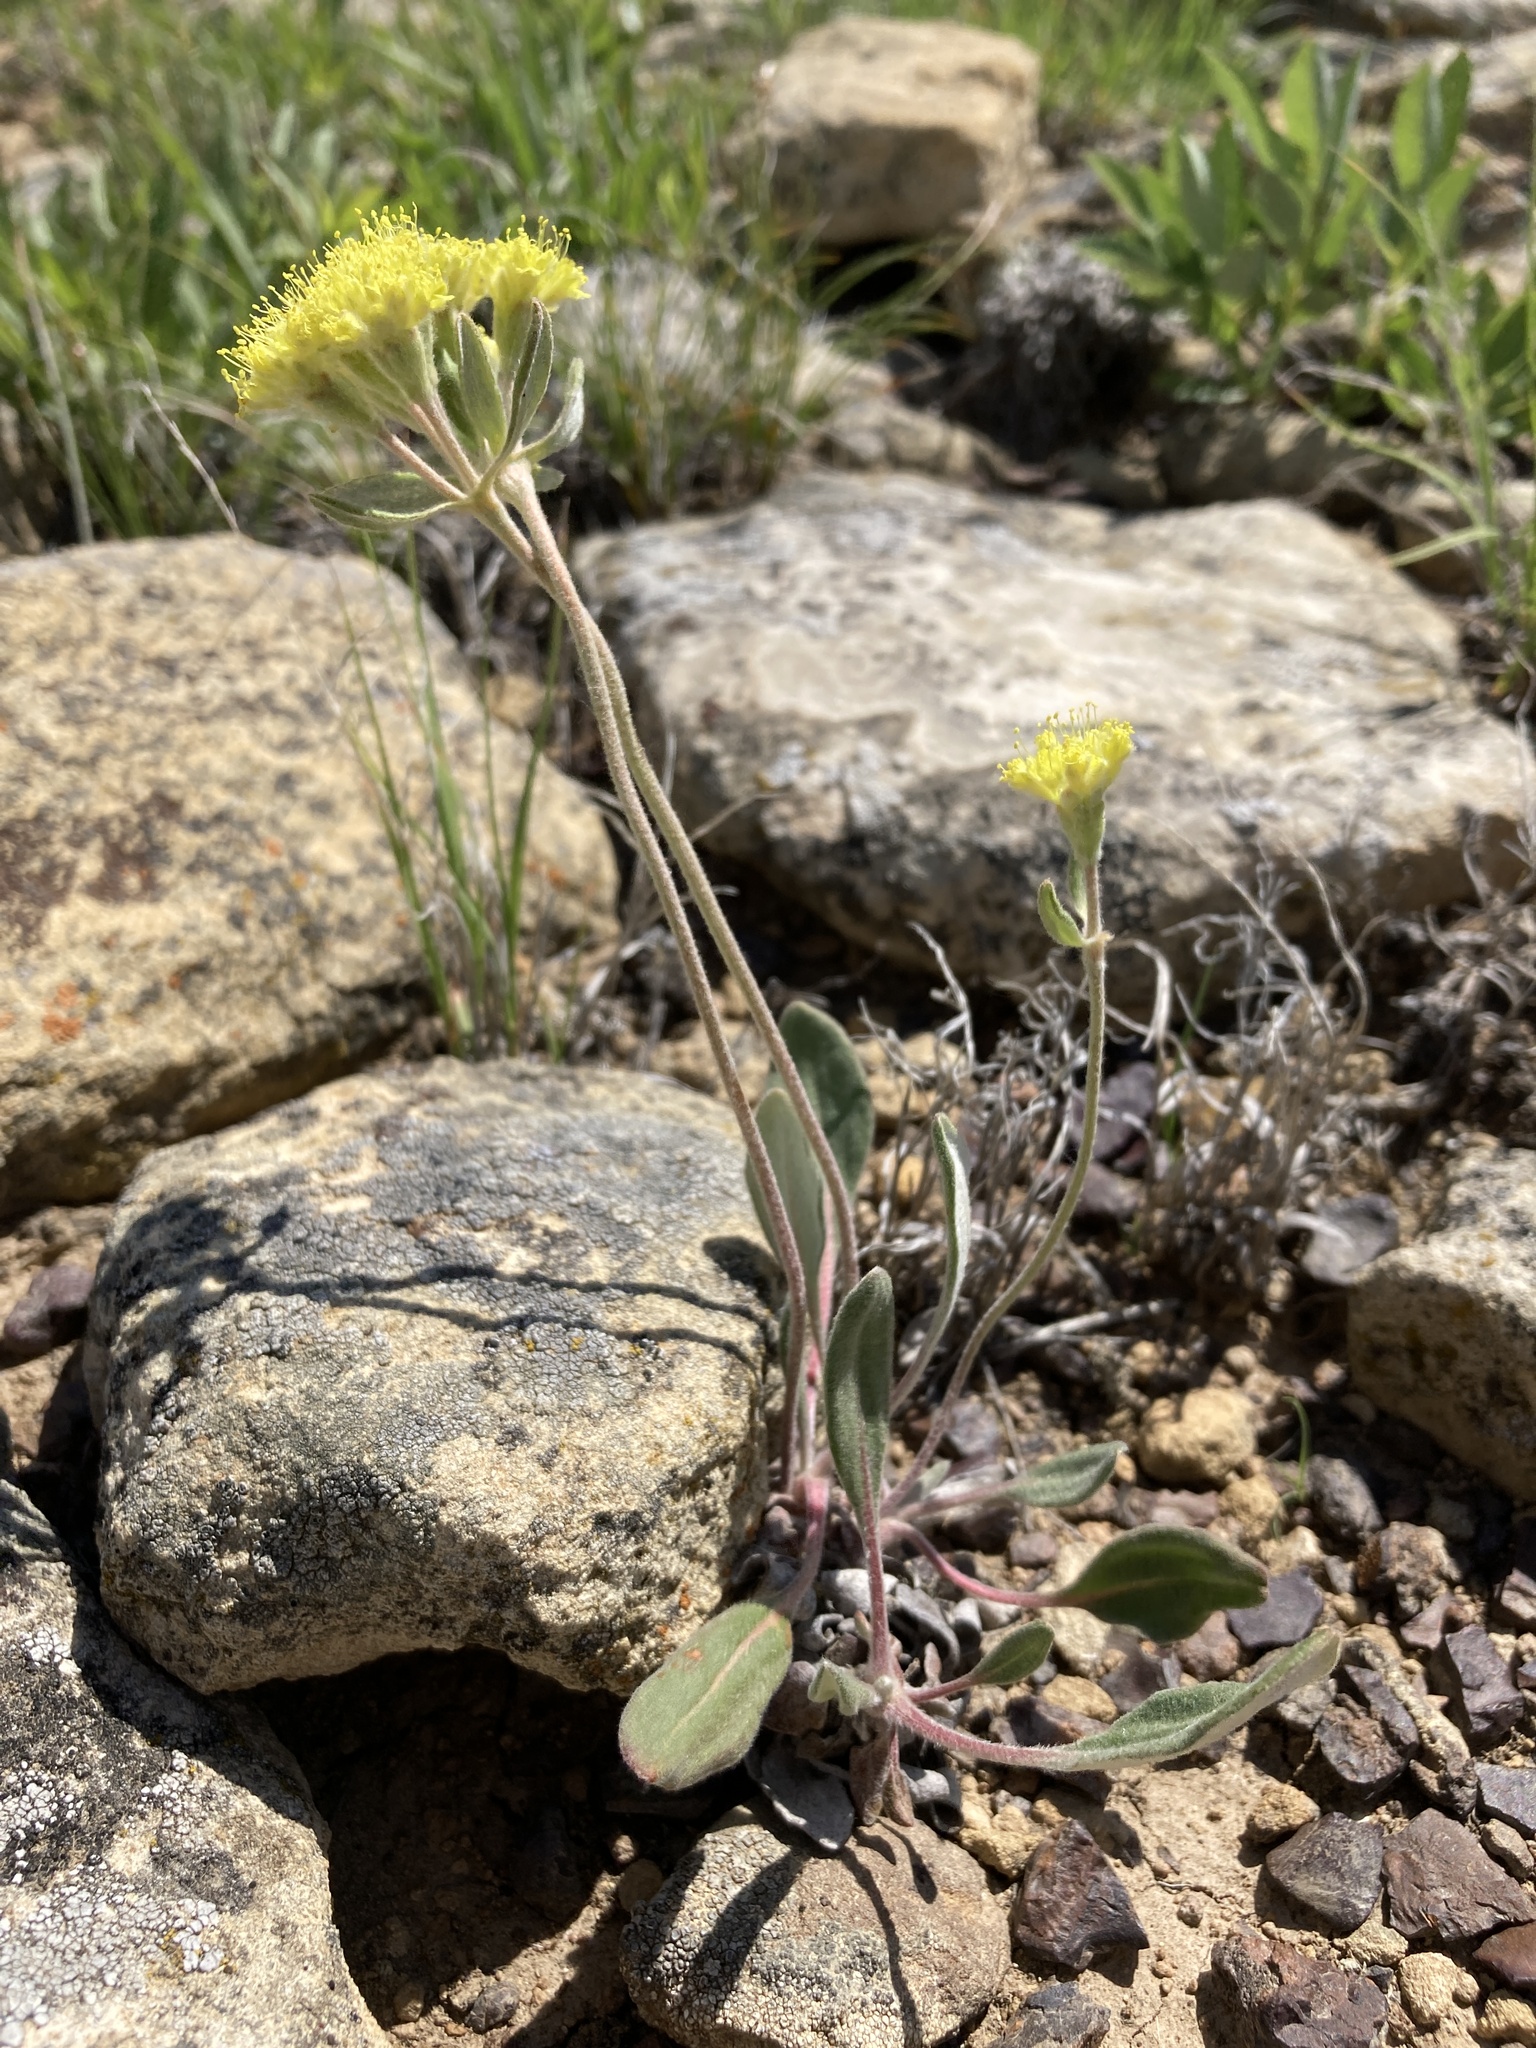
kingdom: Plantae
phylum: Tracheophyta
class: Magnoliopsida
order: Caryophyllales
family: Polygonaceae
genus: Eriogonum
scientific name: Eriogonum flavum
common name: Alpine golden wild buckwheat
